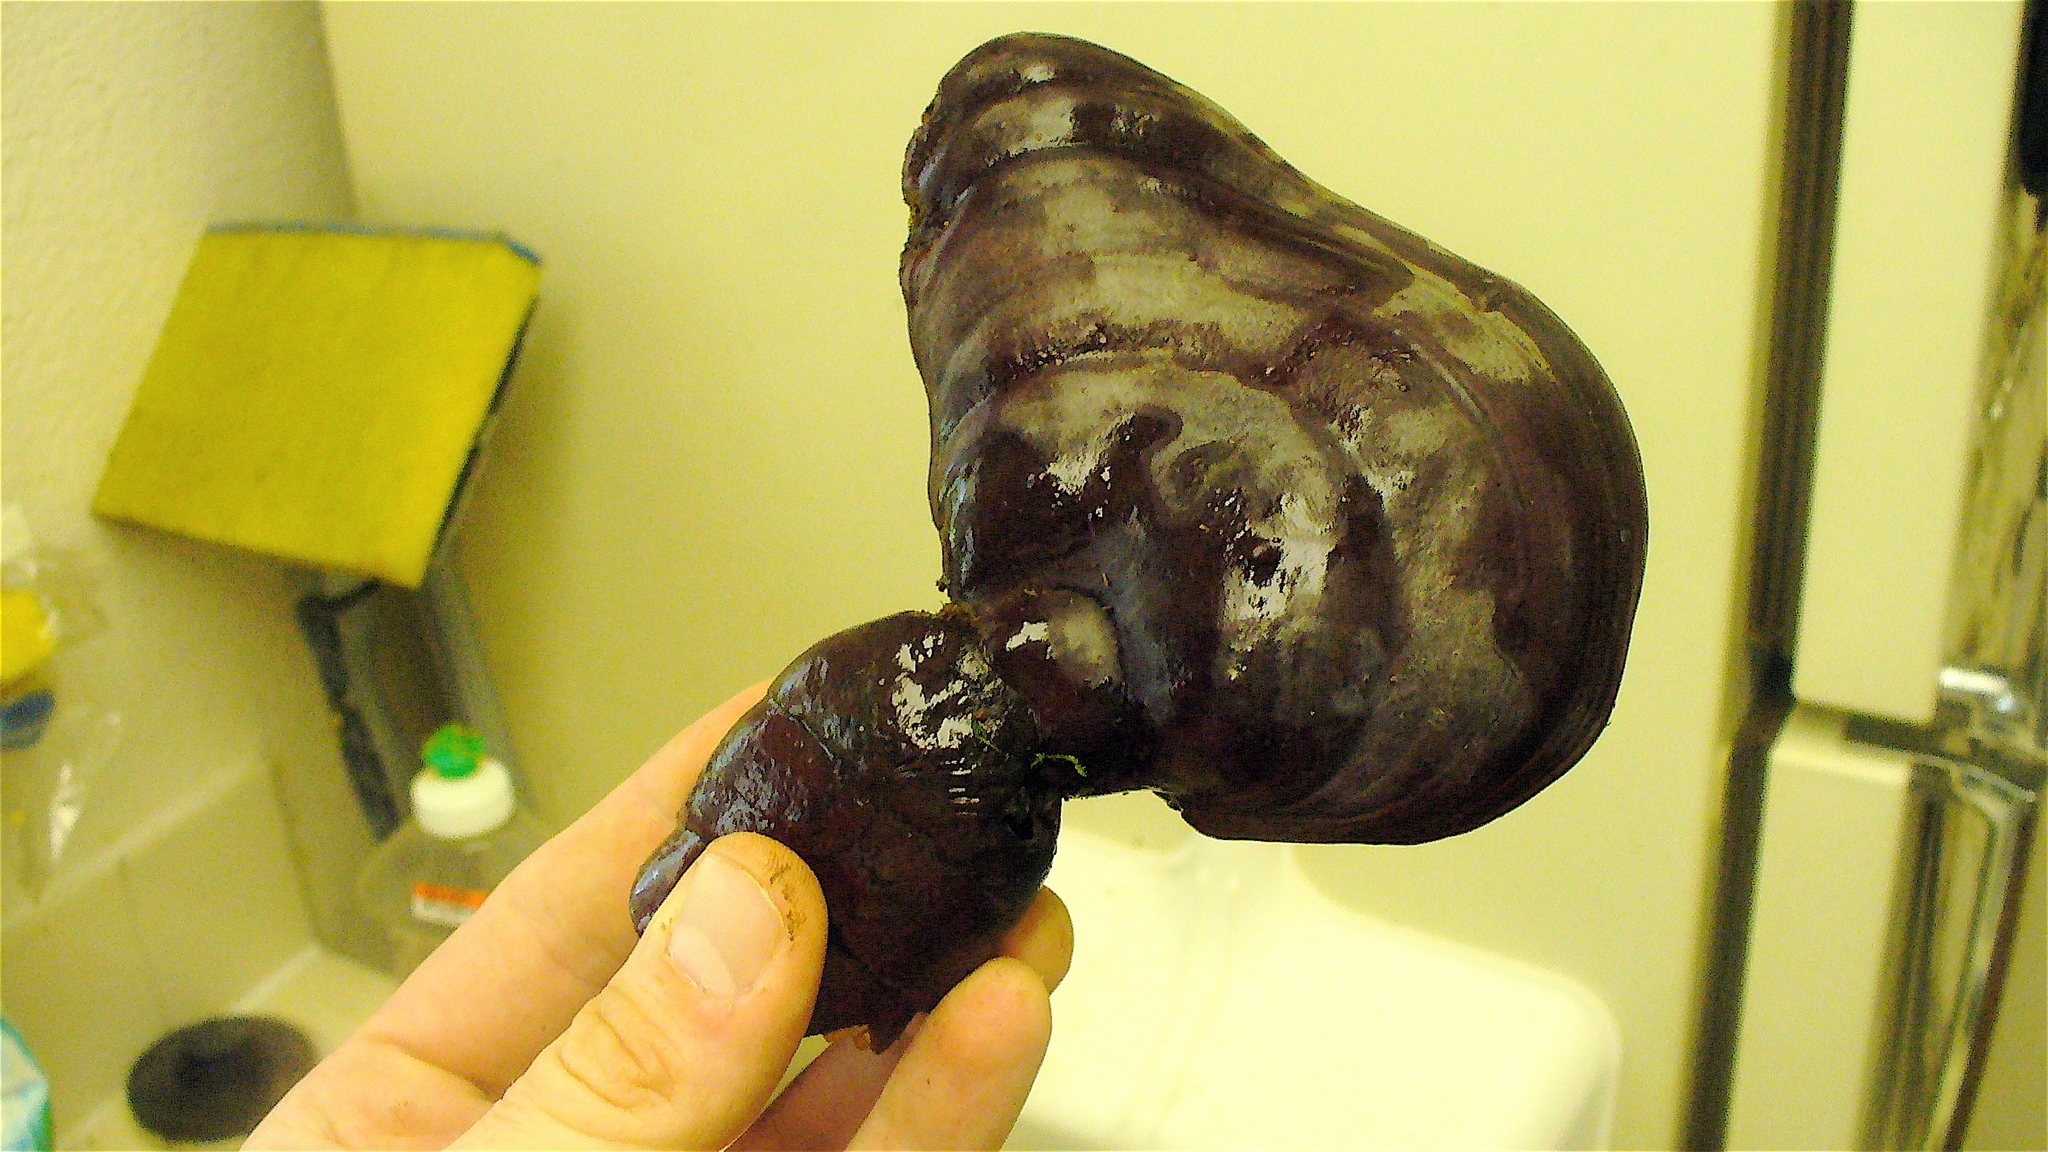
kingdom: Fungi
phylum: Basidiomycota
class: Agaricomycetes
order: Polyporales
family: Polyporaceae
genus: Ganoderma
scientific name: Ganoderma oregonense
